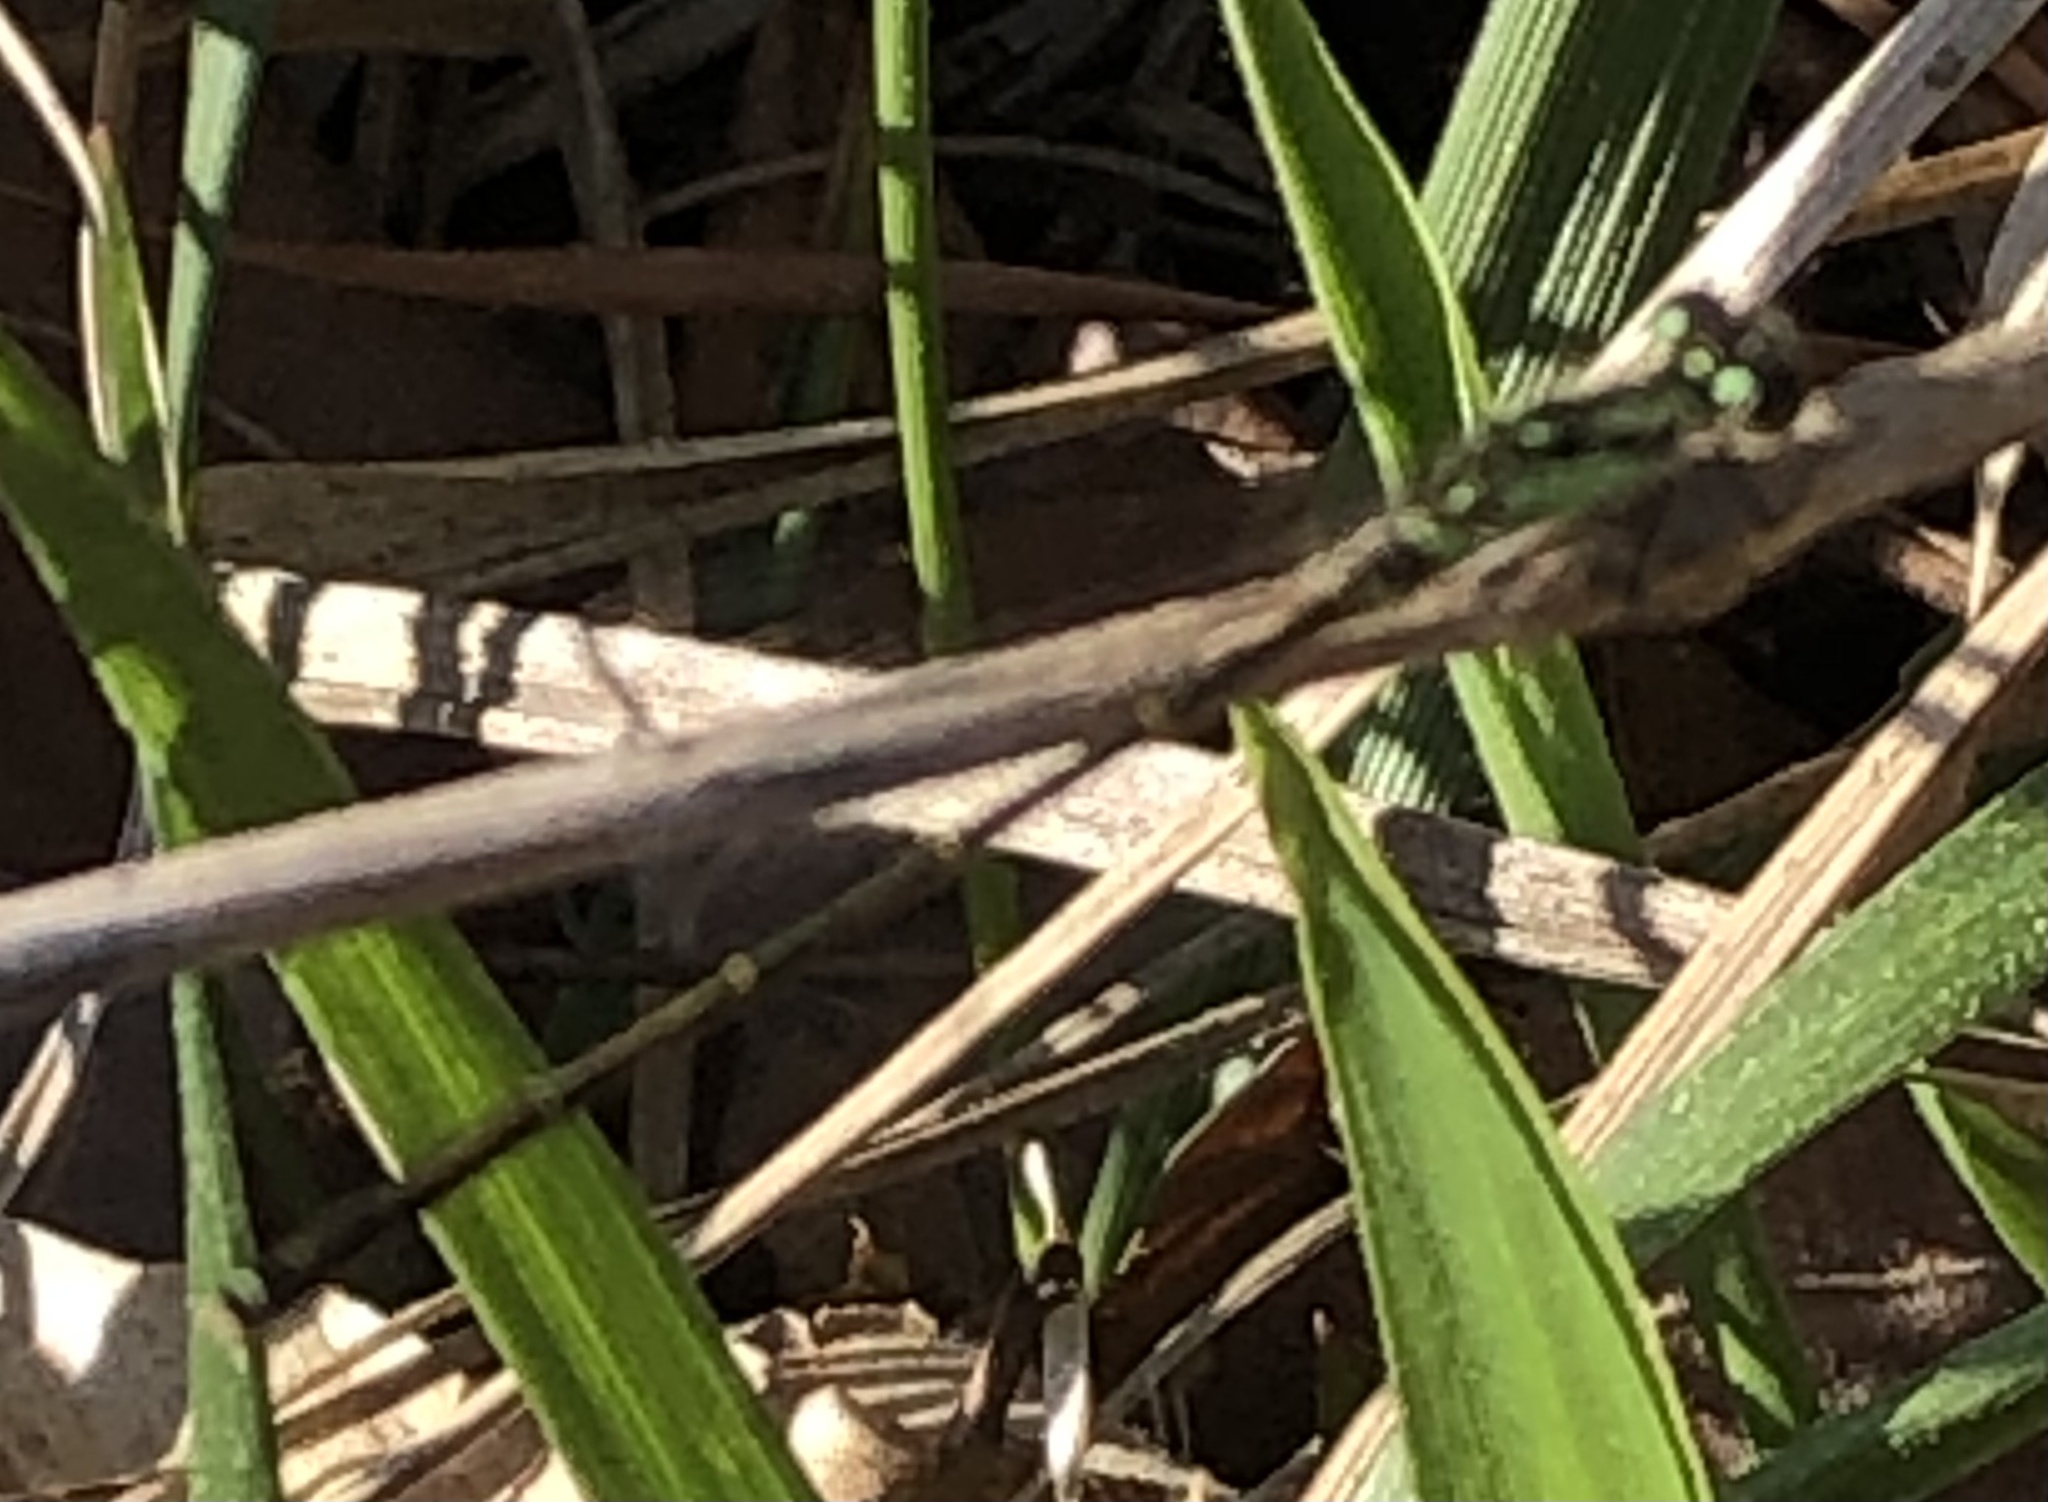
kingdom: Animalia
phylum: Arthropoda
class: Insecta
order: Odonata
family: Coenagrionidae
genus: Ischnura
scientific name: Ischnura posita
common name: Fragile forktail
